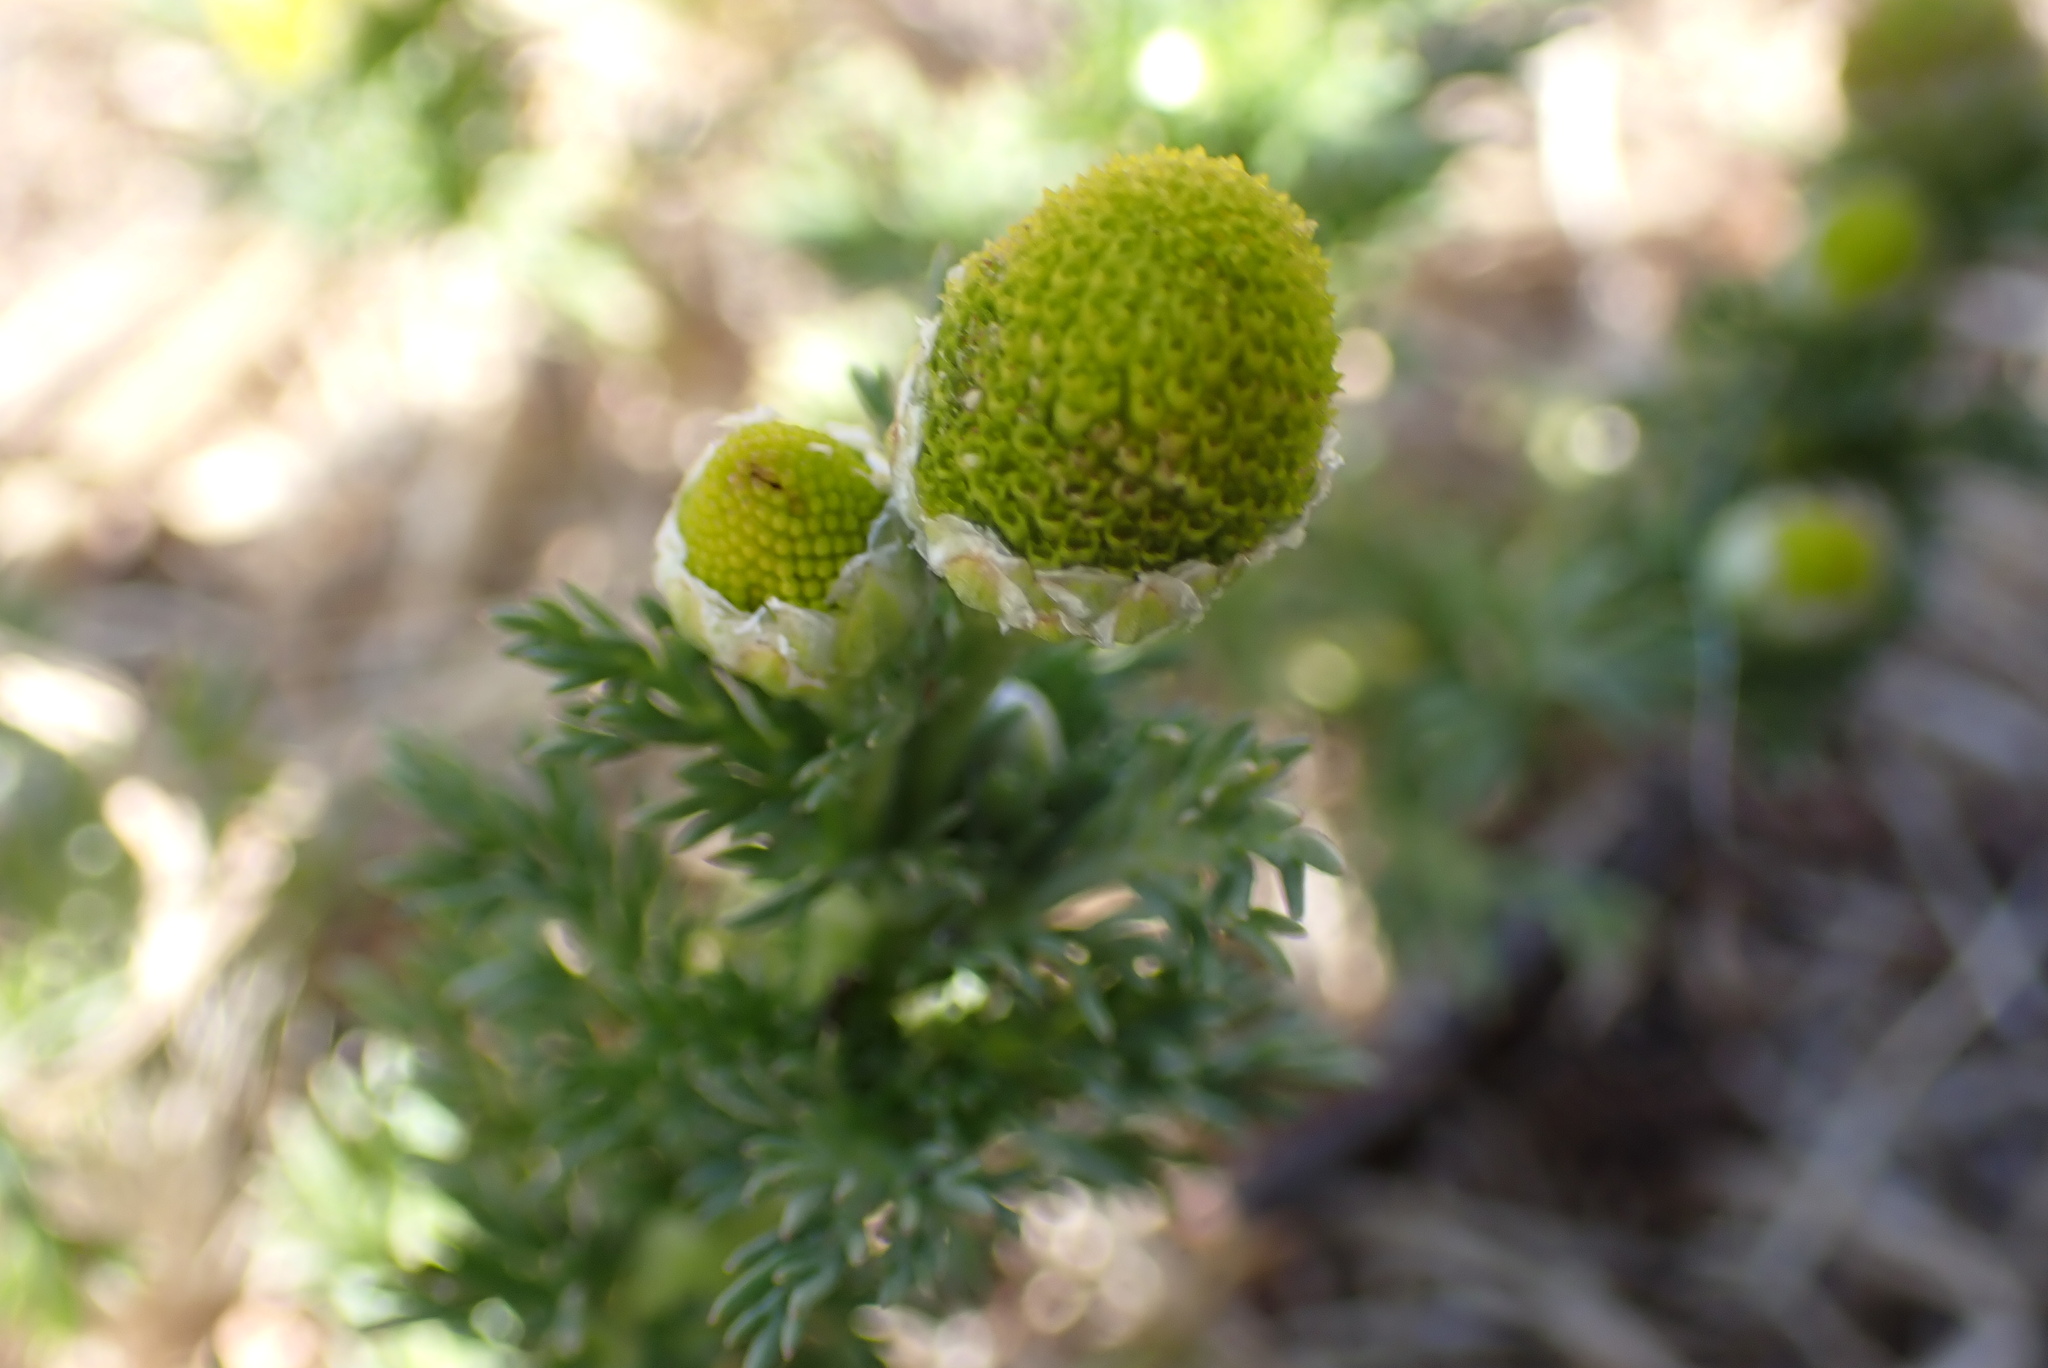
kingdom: Plantae
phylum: Tracheophyta
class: Magnoliopsida
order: Asterales
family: Asteraceae
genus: Matricaria
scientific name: Matricaria discoidea
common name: Disc mayweed
